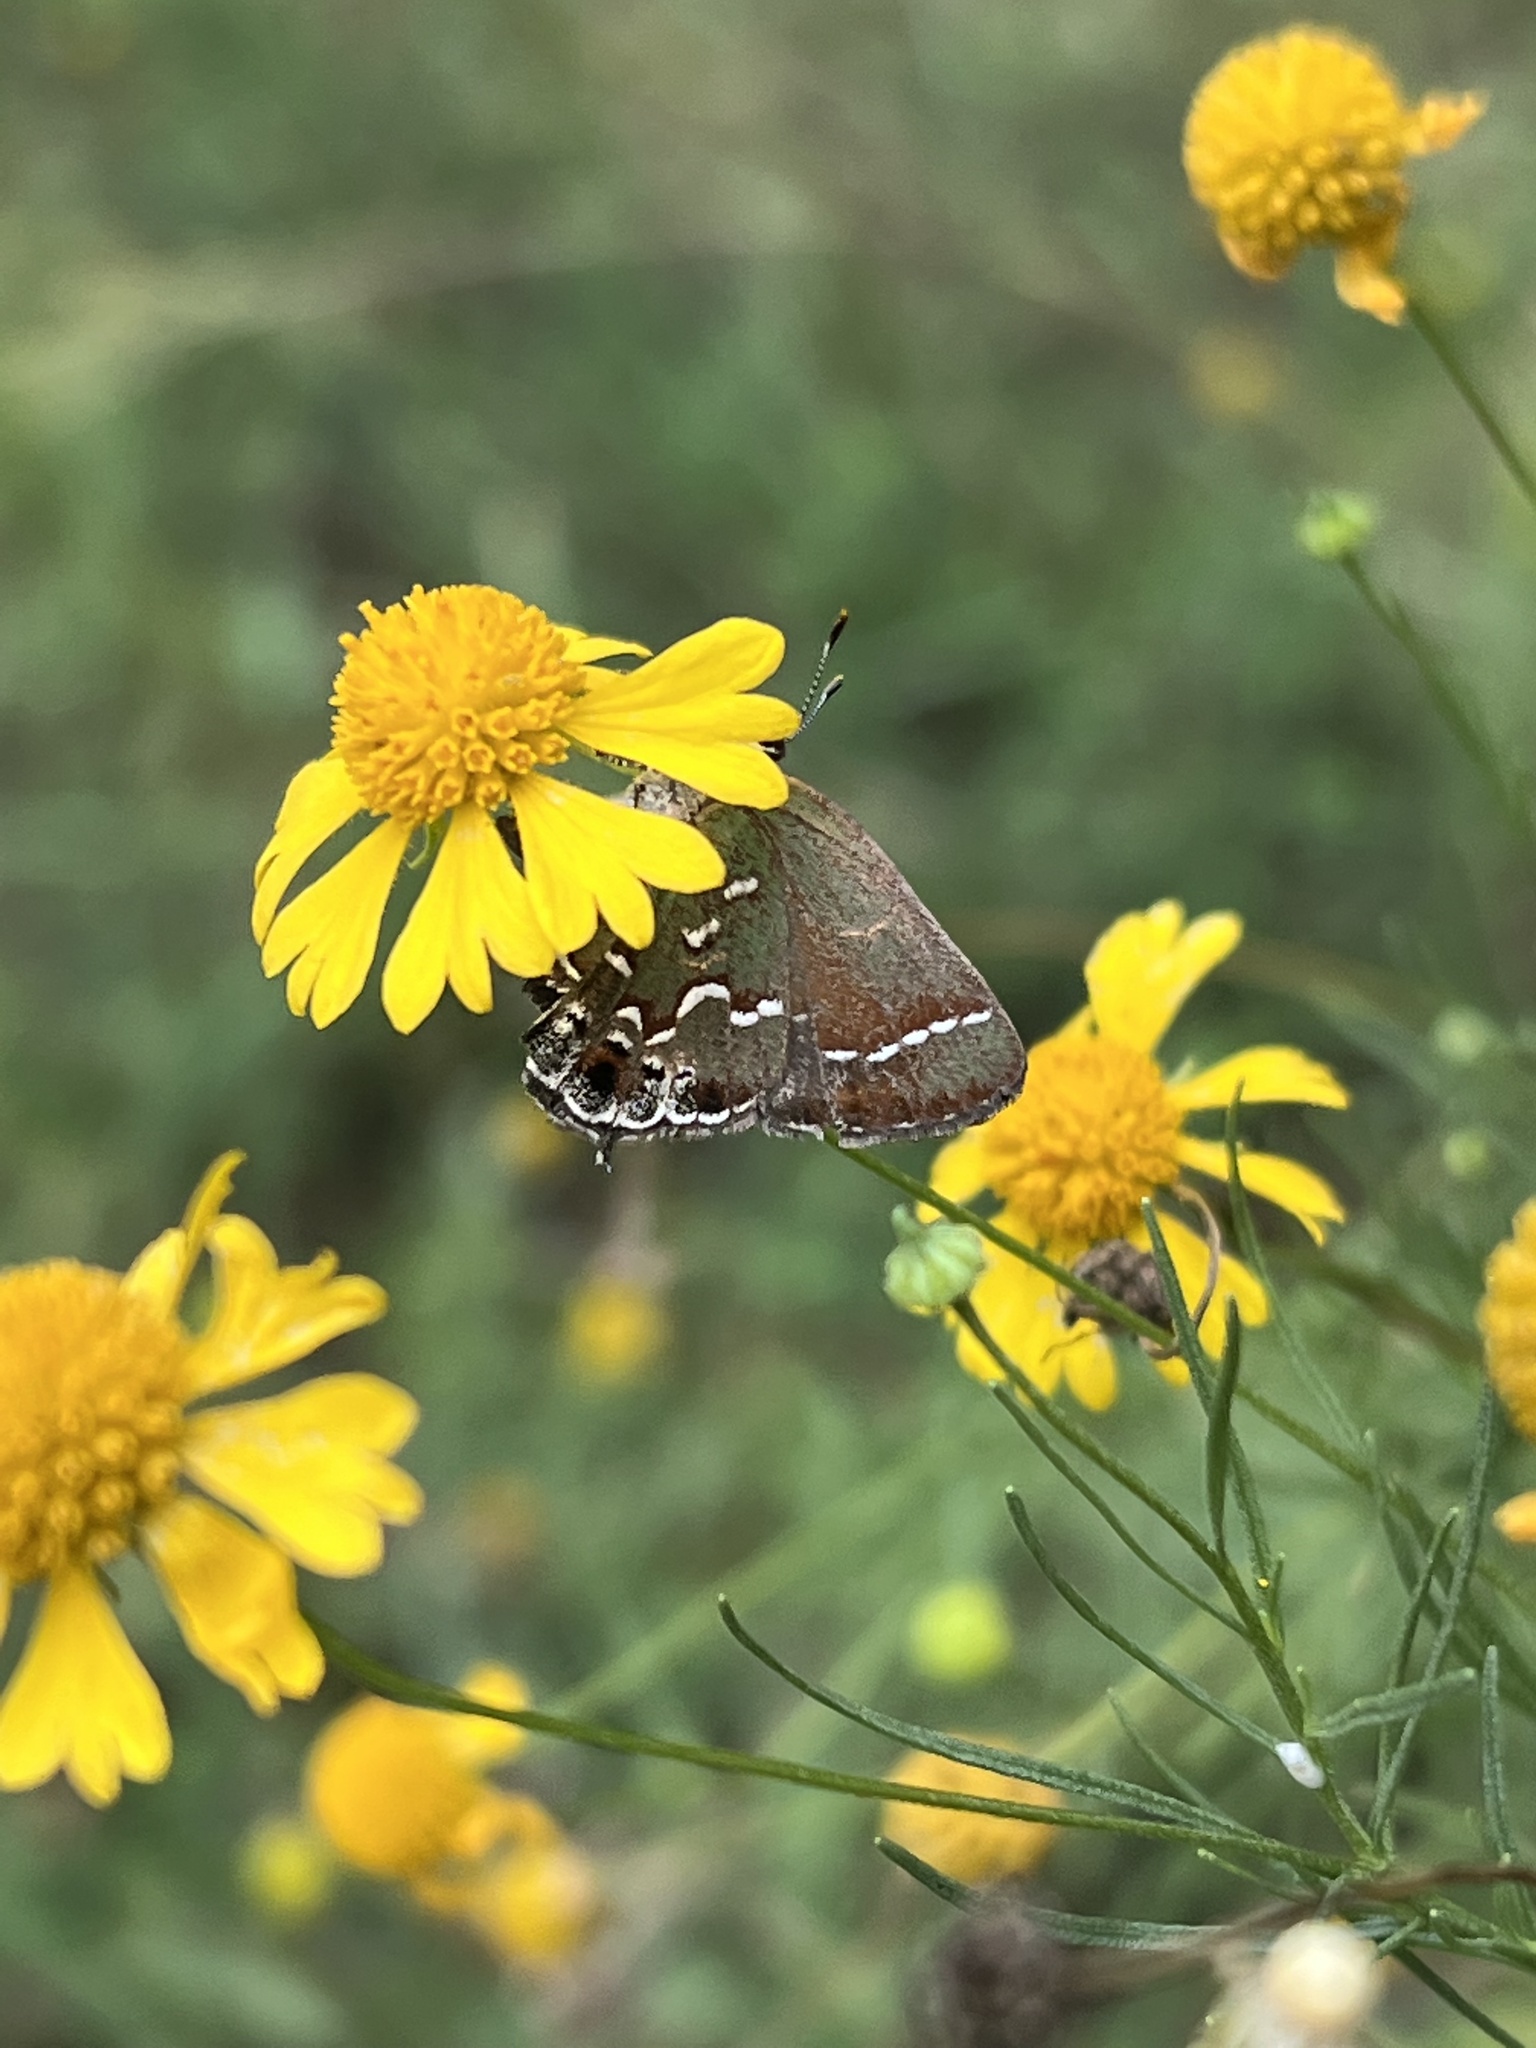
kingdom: Animalia
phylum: Arthropoda
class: Insecta
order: Lepidoptera
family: Lycaenidae
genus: Mitoura
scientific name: Mitoura gryneus
